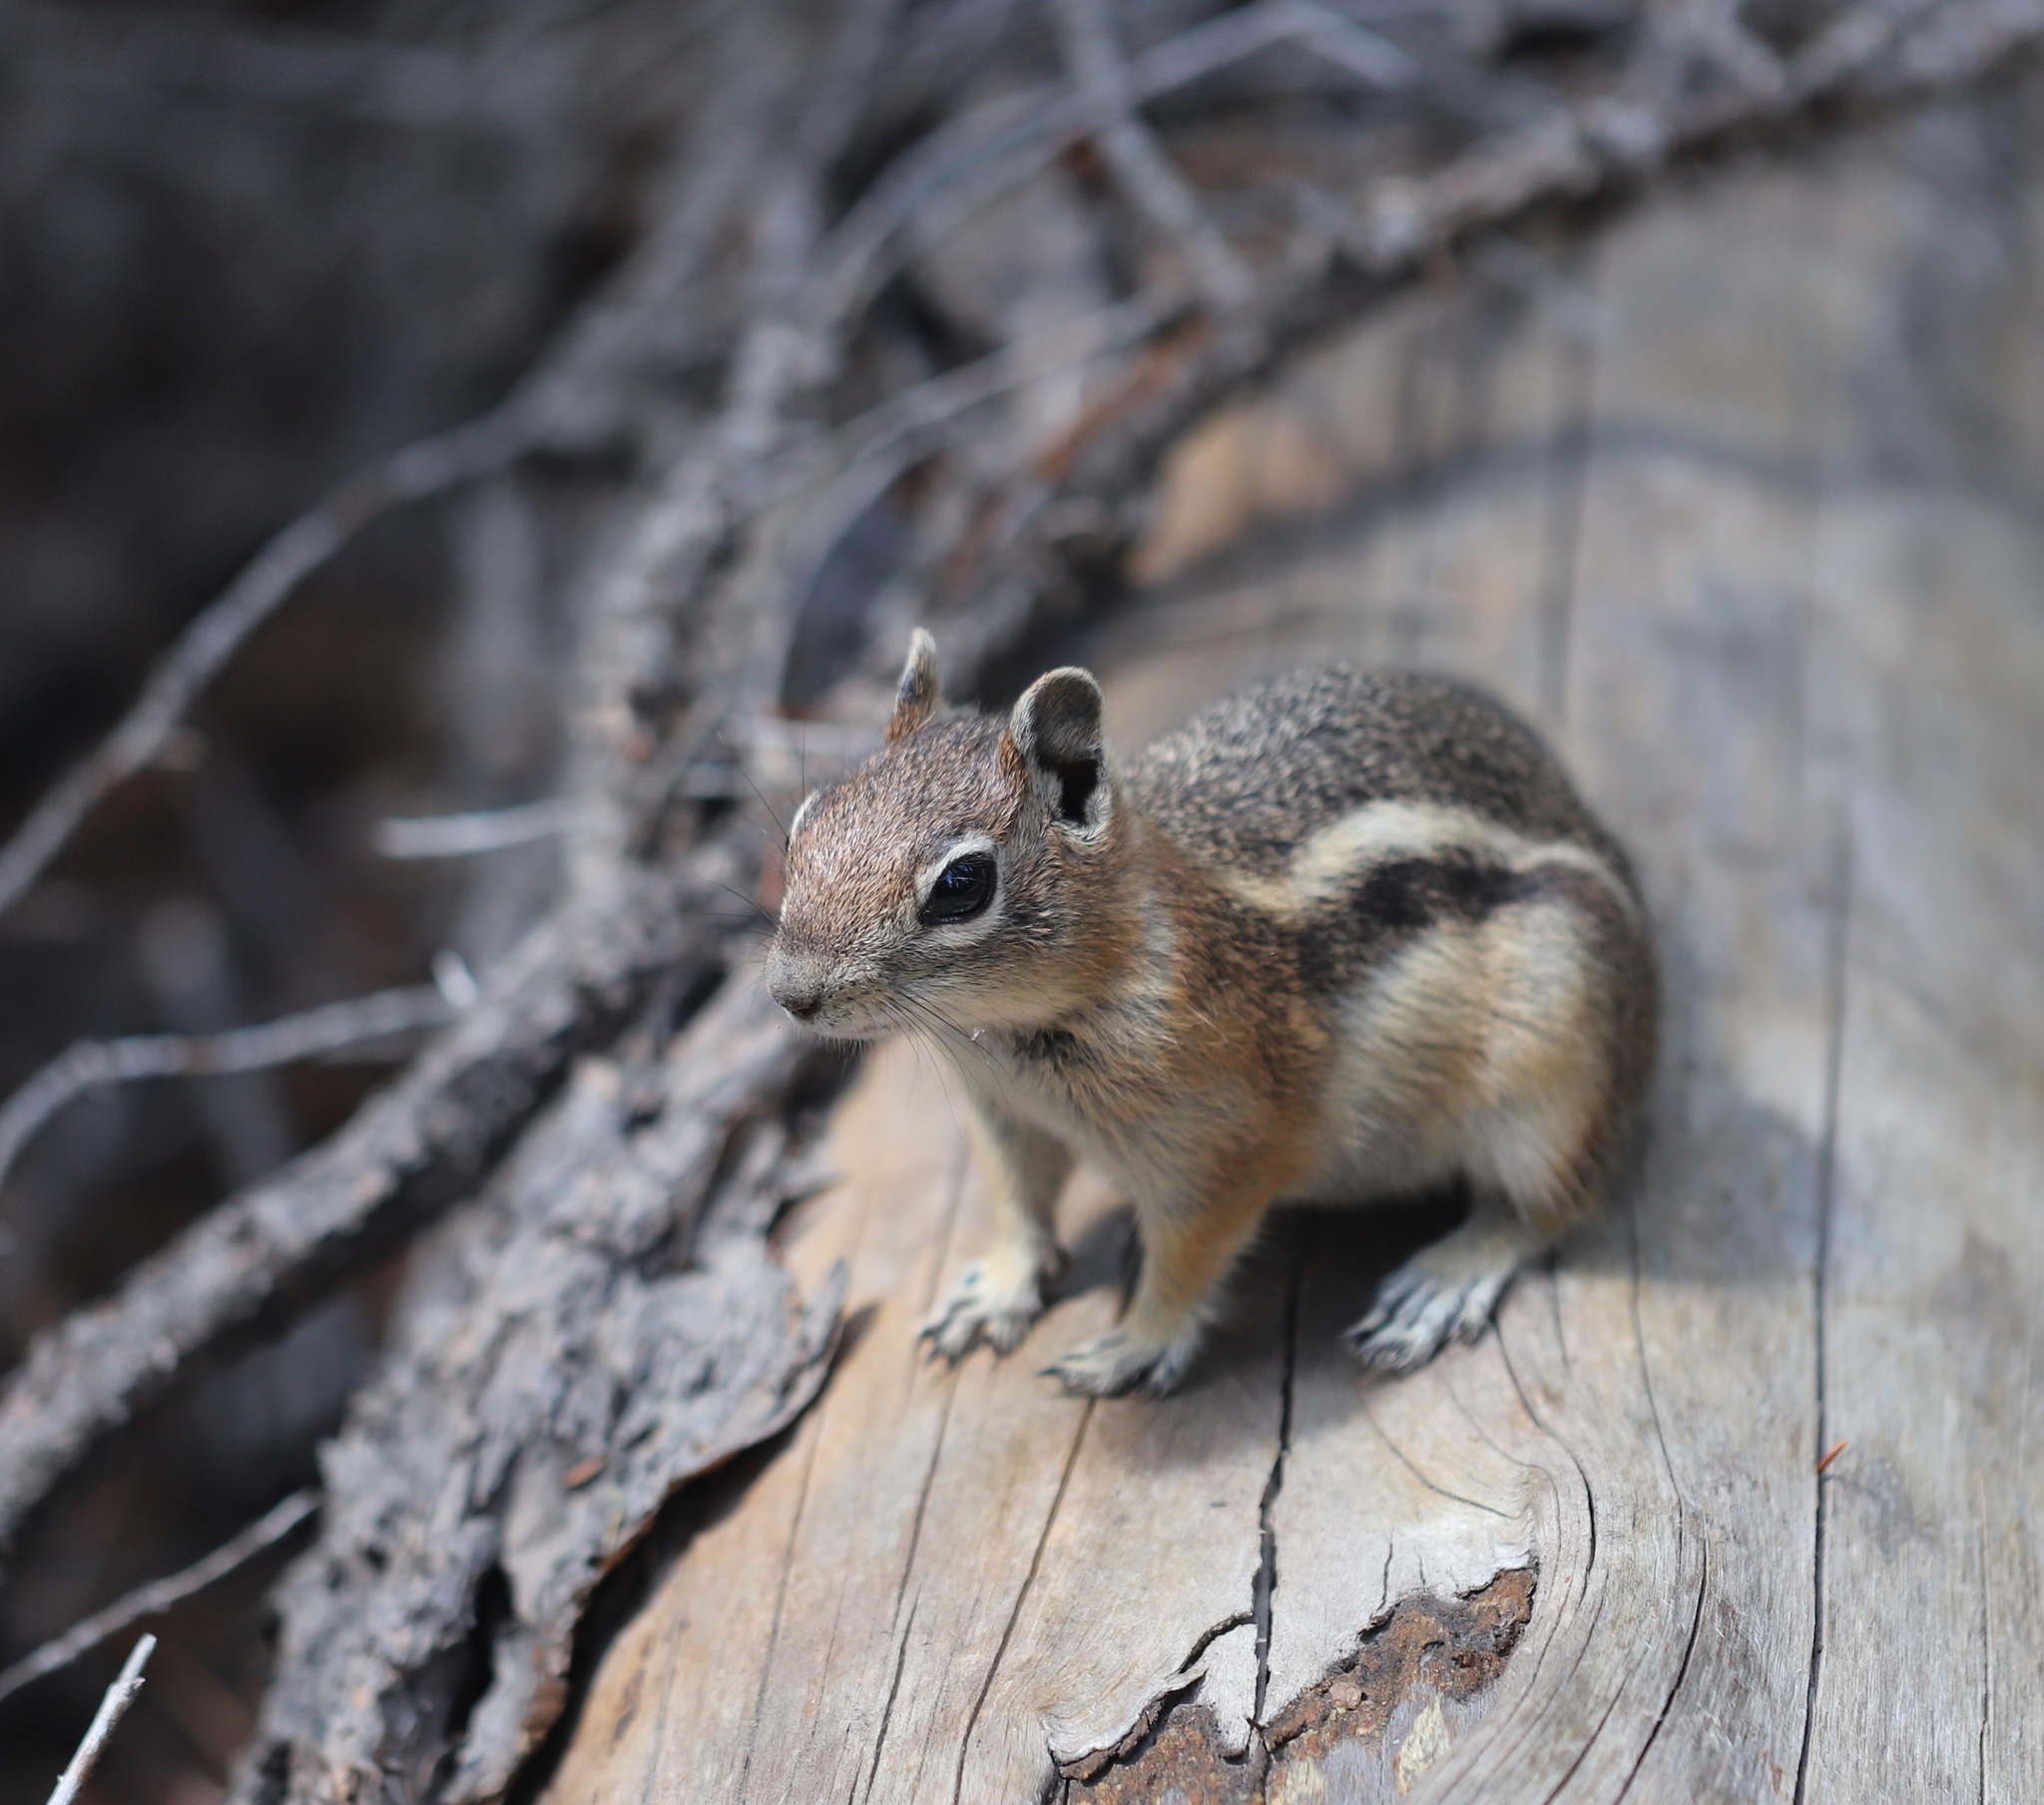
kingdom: Animalia
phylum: Chordata
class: Mammalia
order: Rodentia
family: Sciuridae
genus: Callospermophilus
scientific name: Callospermophilus lateralis
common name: Golden-mantled ground squirrel
